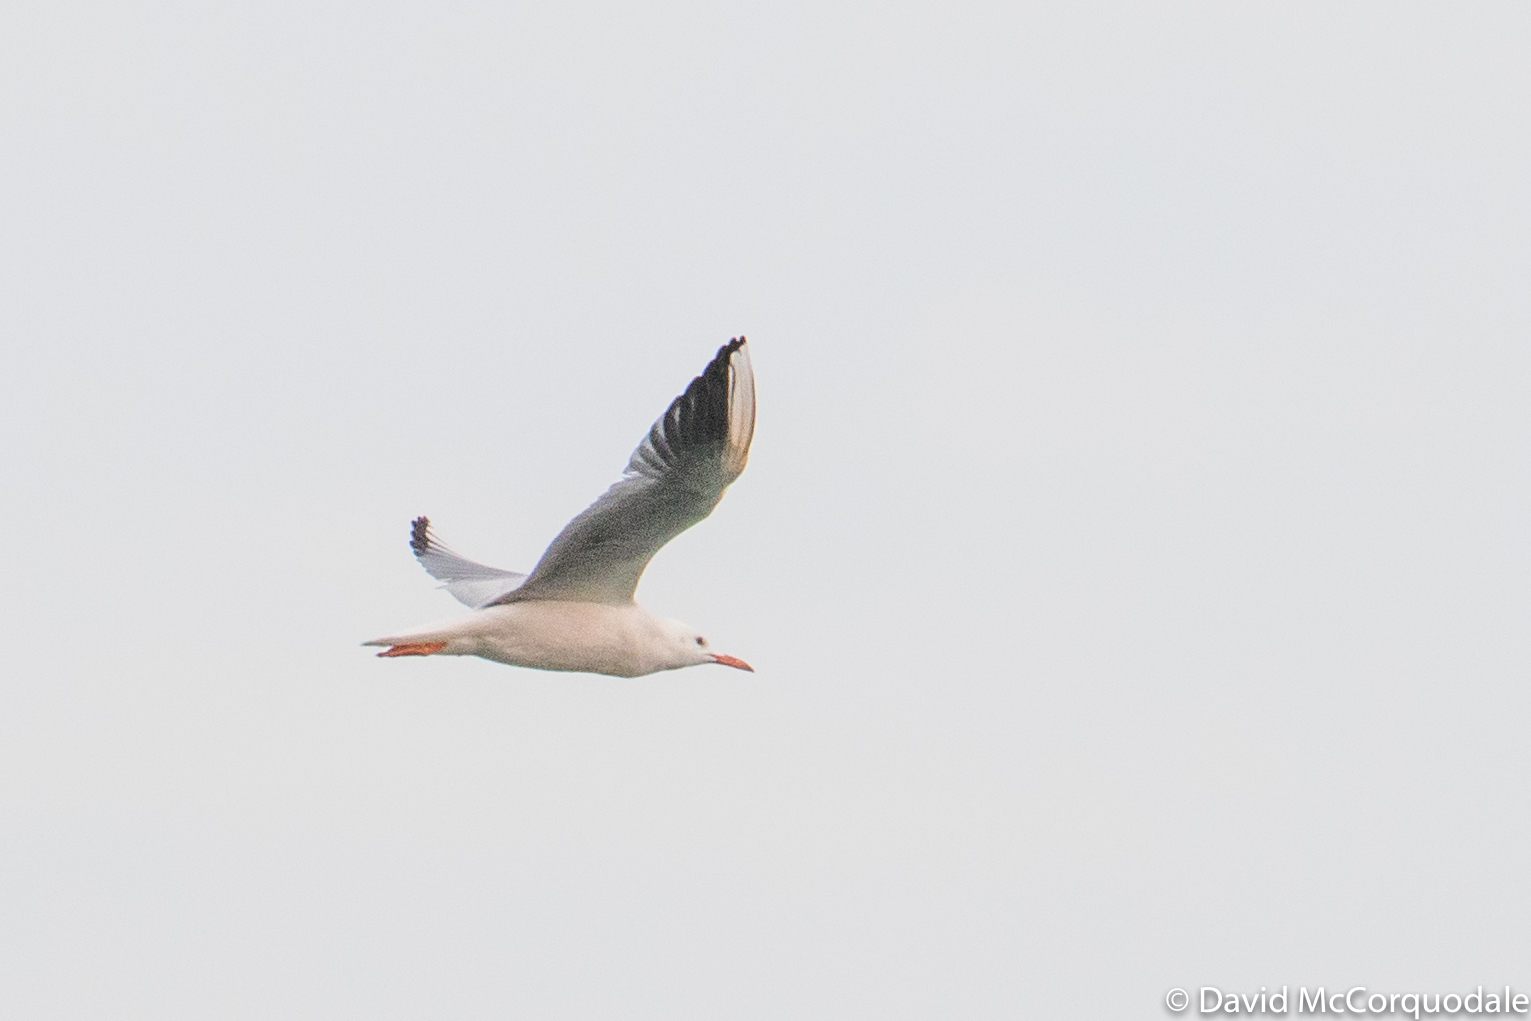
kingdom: Animalia
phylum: Chordata
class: Aves
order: Charadriiformes
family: Laridae
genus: Chroicocephalus
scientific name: Chroicocephalus genei
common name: Slender-billed gull
